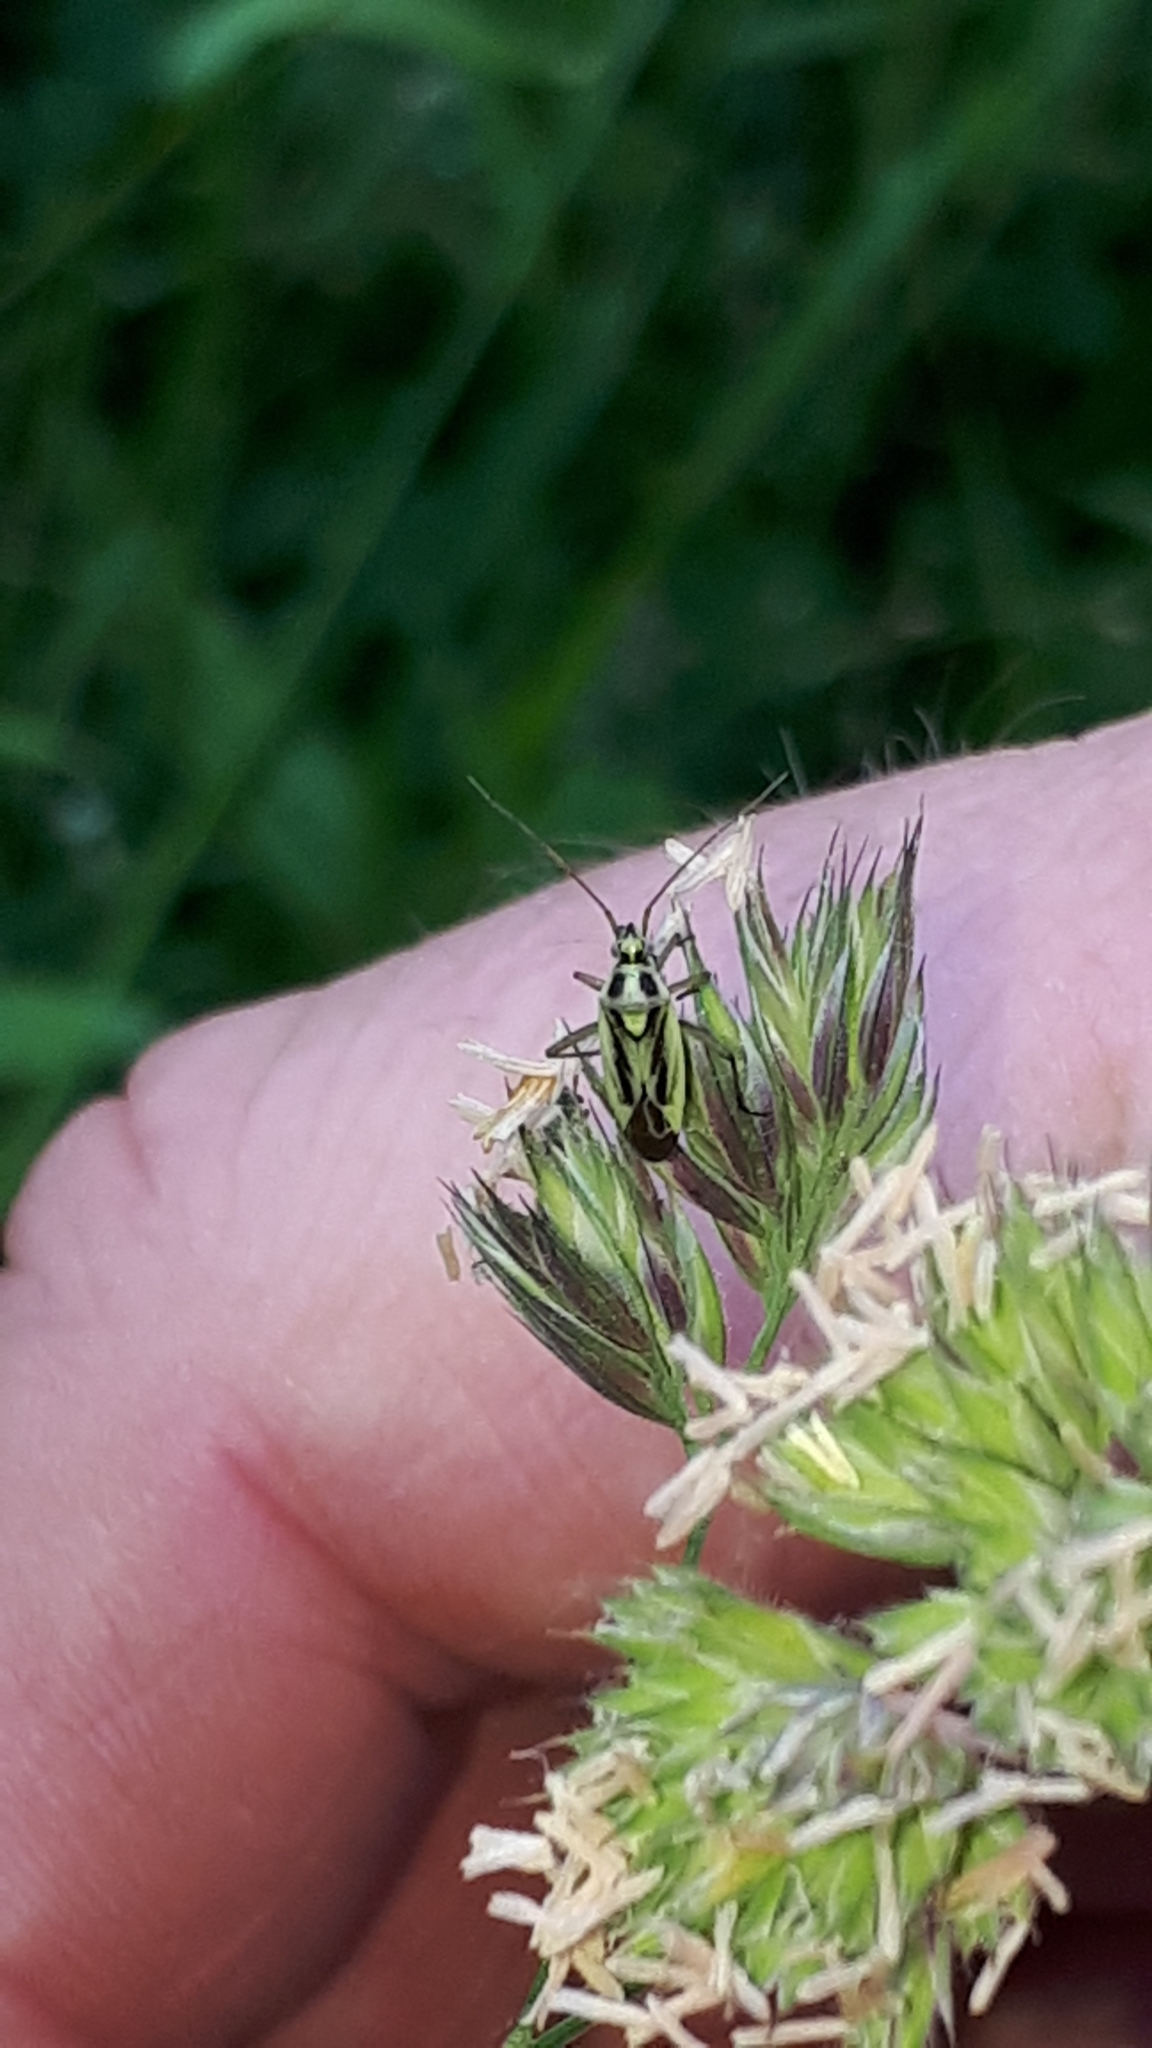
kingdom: Animalia
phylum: Arthropoda
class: Insecta
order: Hemiptera
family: Miridae
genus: Stenotus
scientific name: Stenotus binotatus
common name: Plant bug
